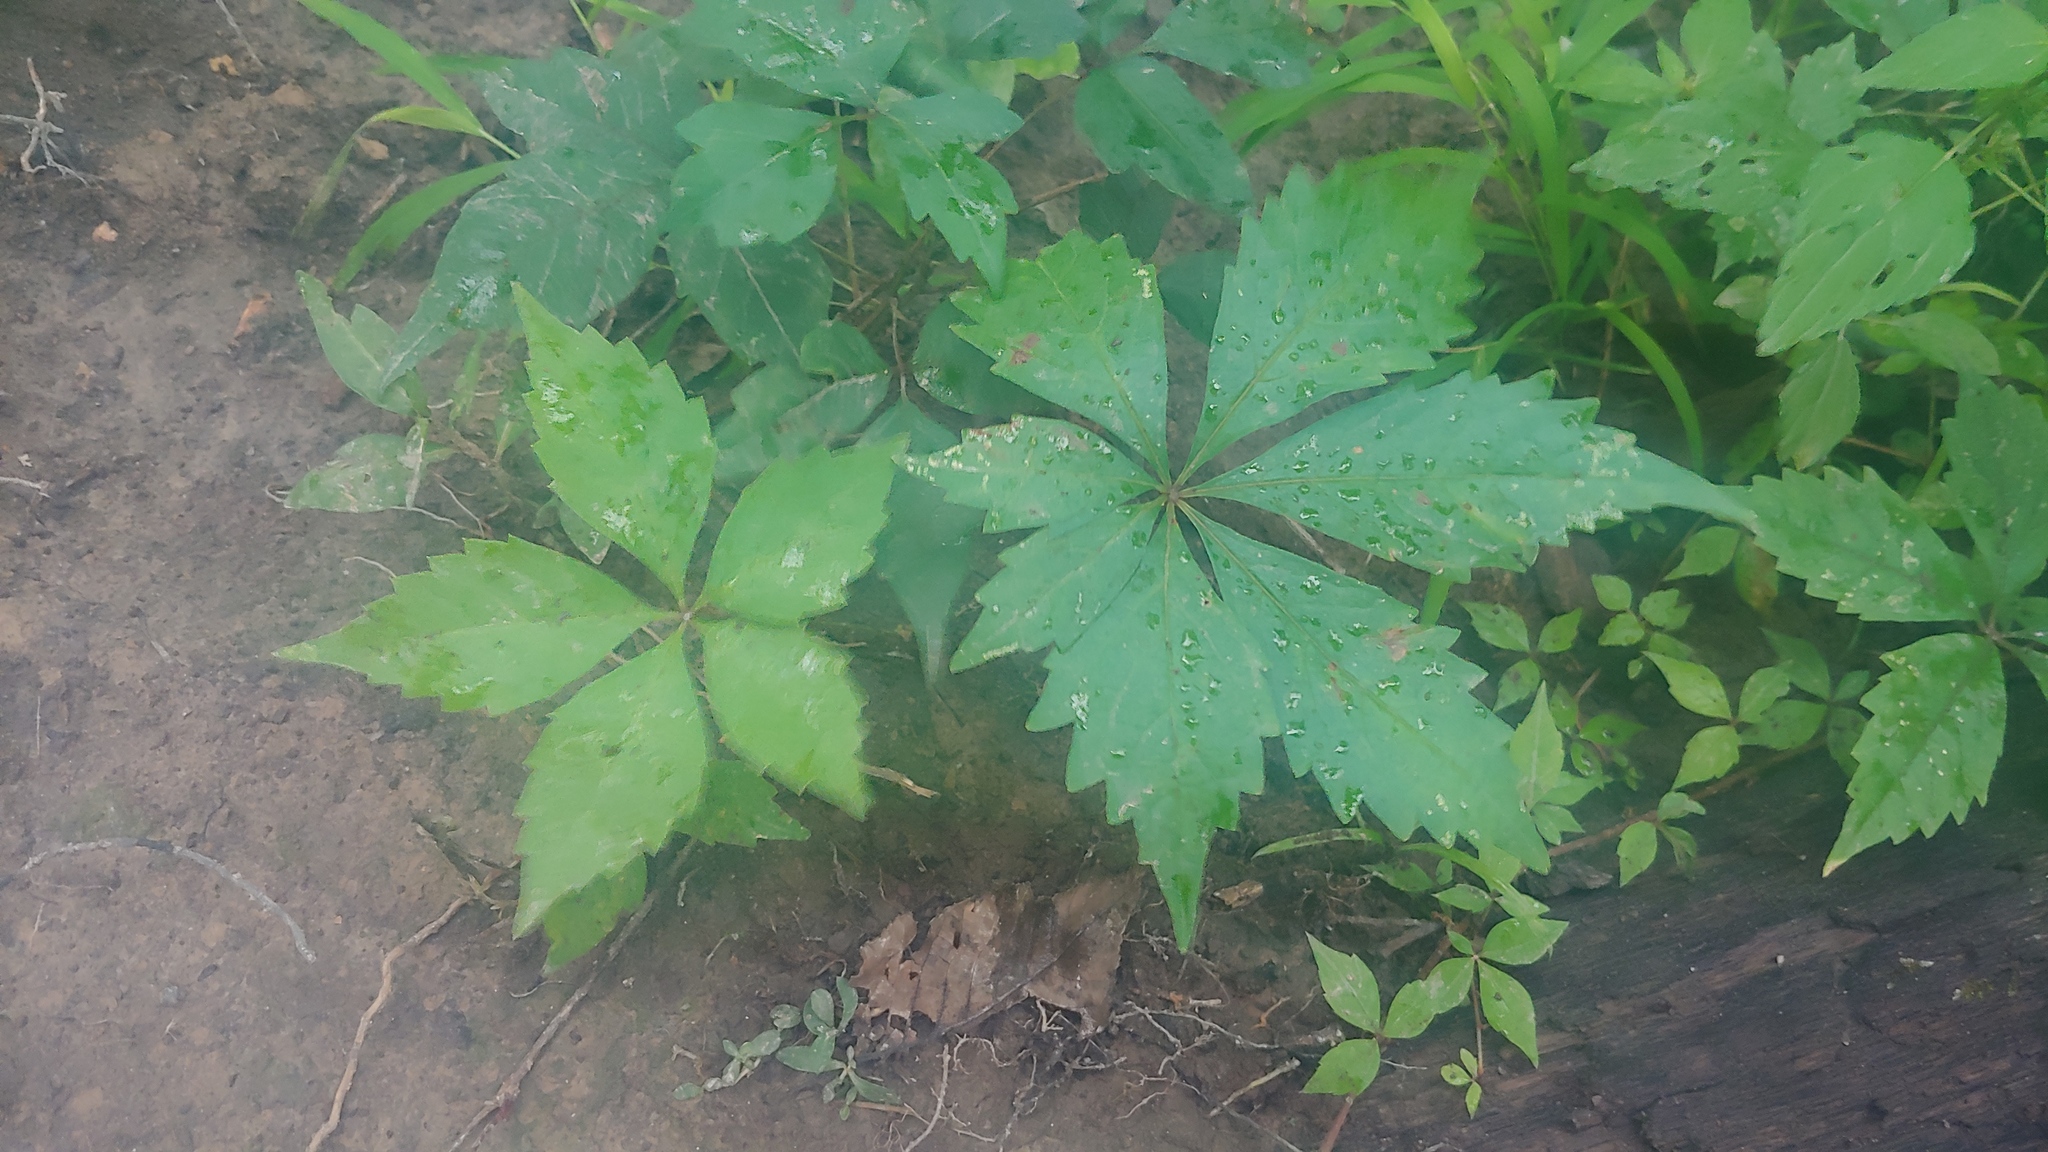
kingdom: Plantae
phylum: Tracheophyta
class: Magnoliopsida
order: Vitales
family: Vitaceae
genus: Parthenocissus
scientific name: Parthenocissus quinquefolia
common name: Virginia-creeper
